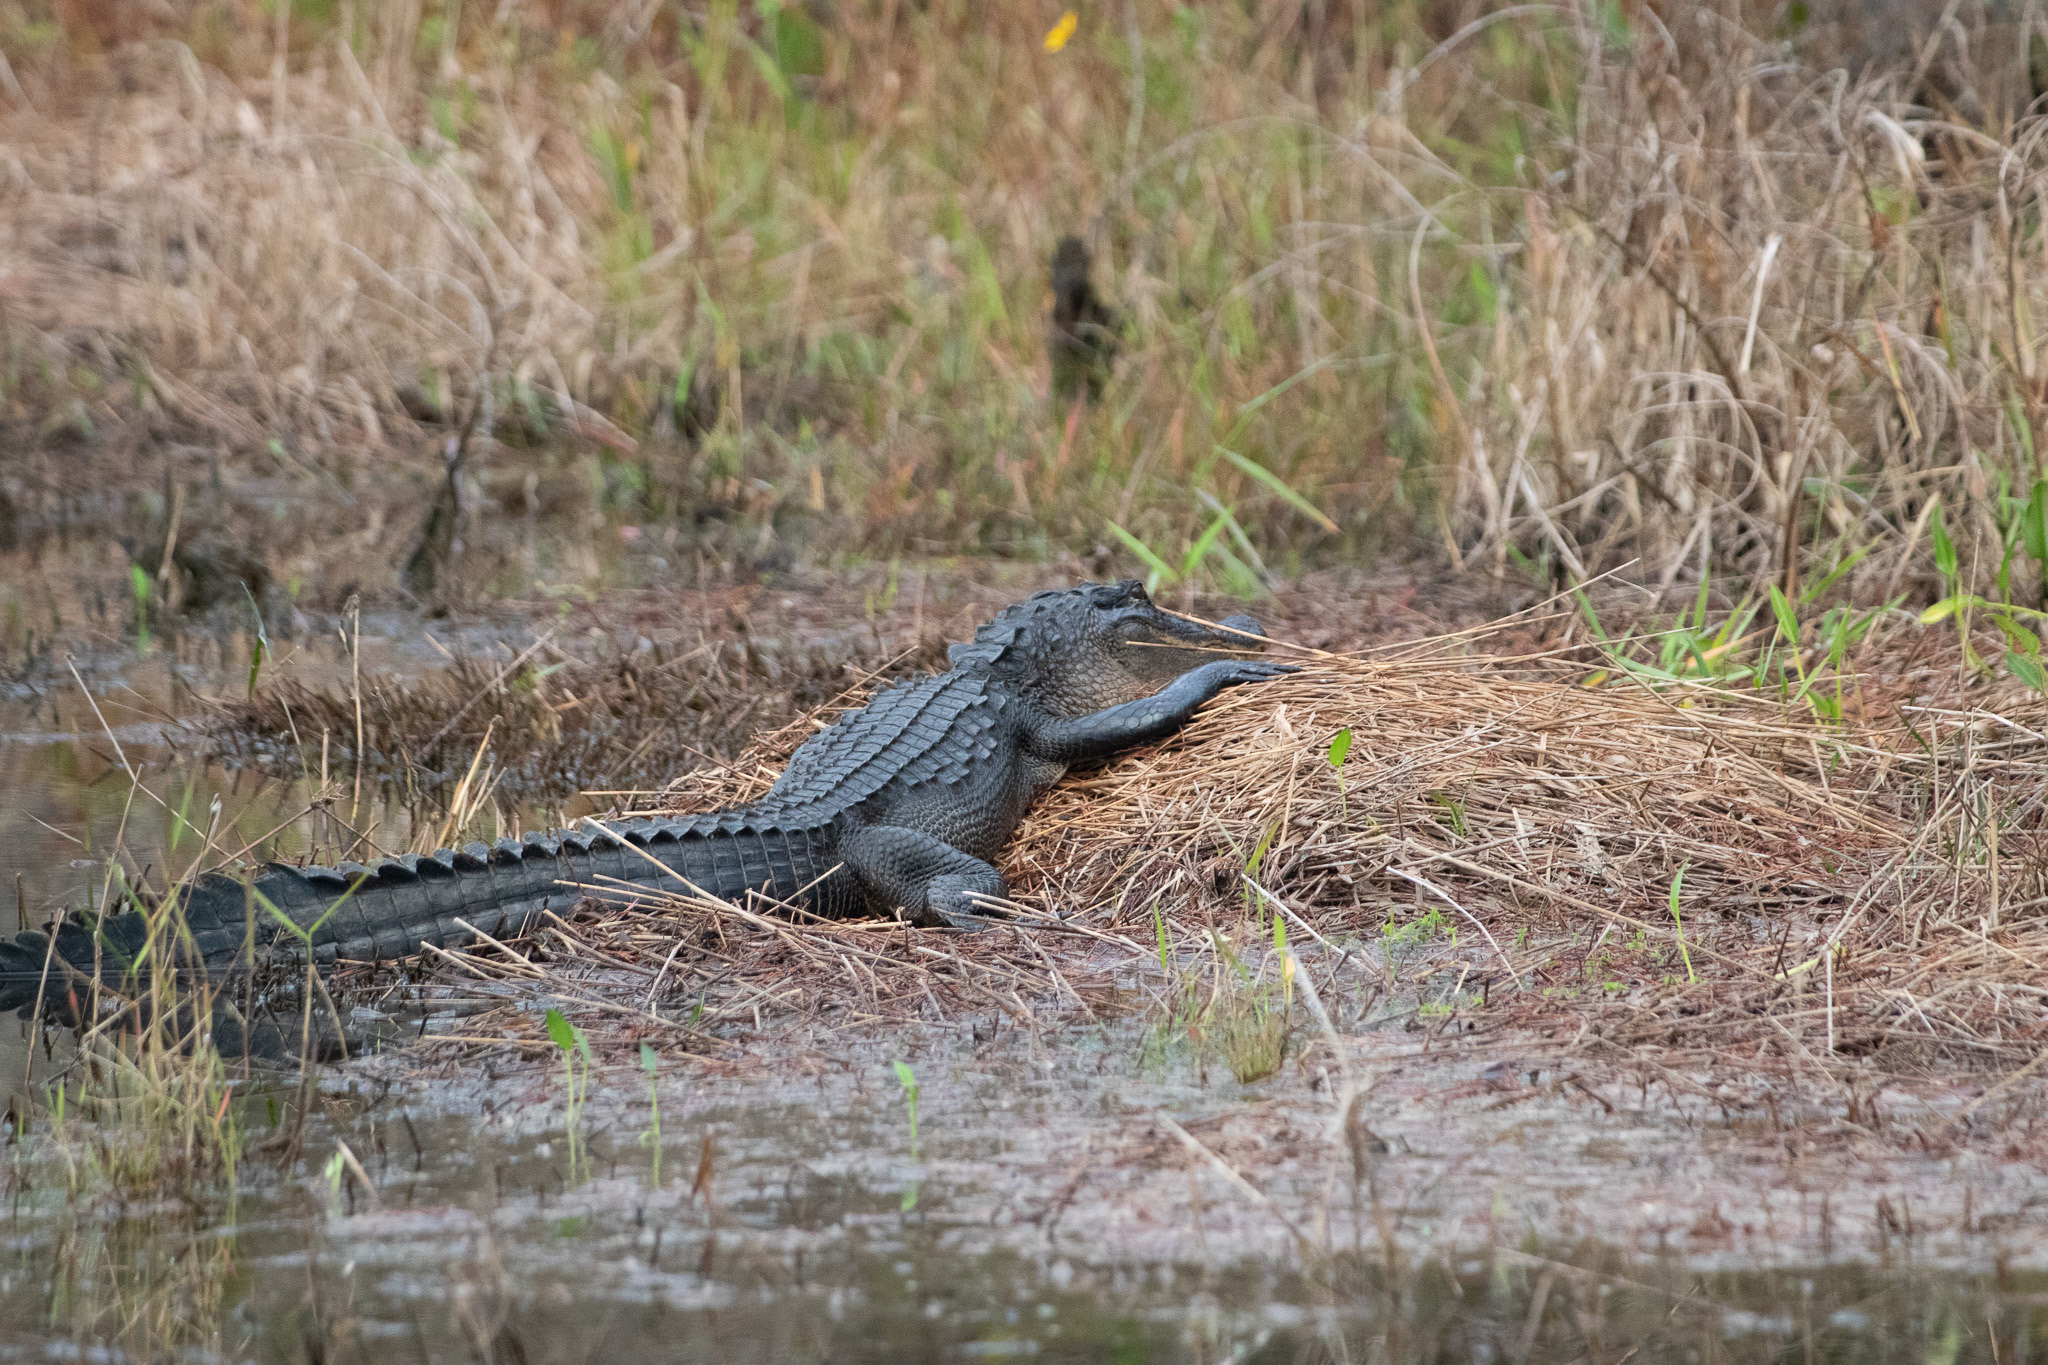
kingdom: Animalia
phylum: Chordata
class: Crocodylia
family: Alligatoridae
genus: Alligator
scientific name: Alligator mississippiensis
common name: American alligator
